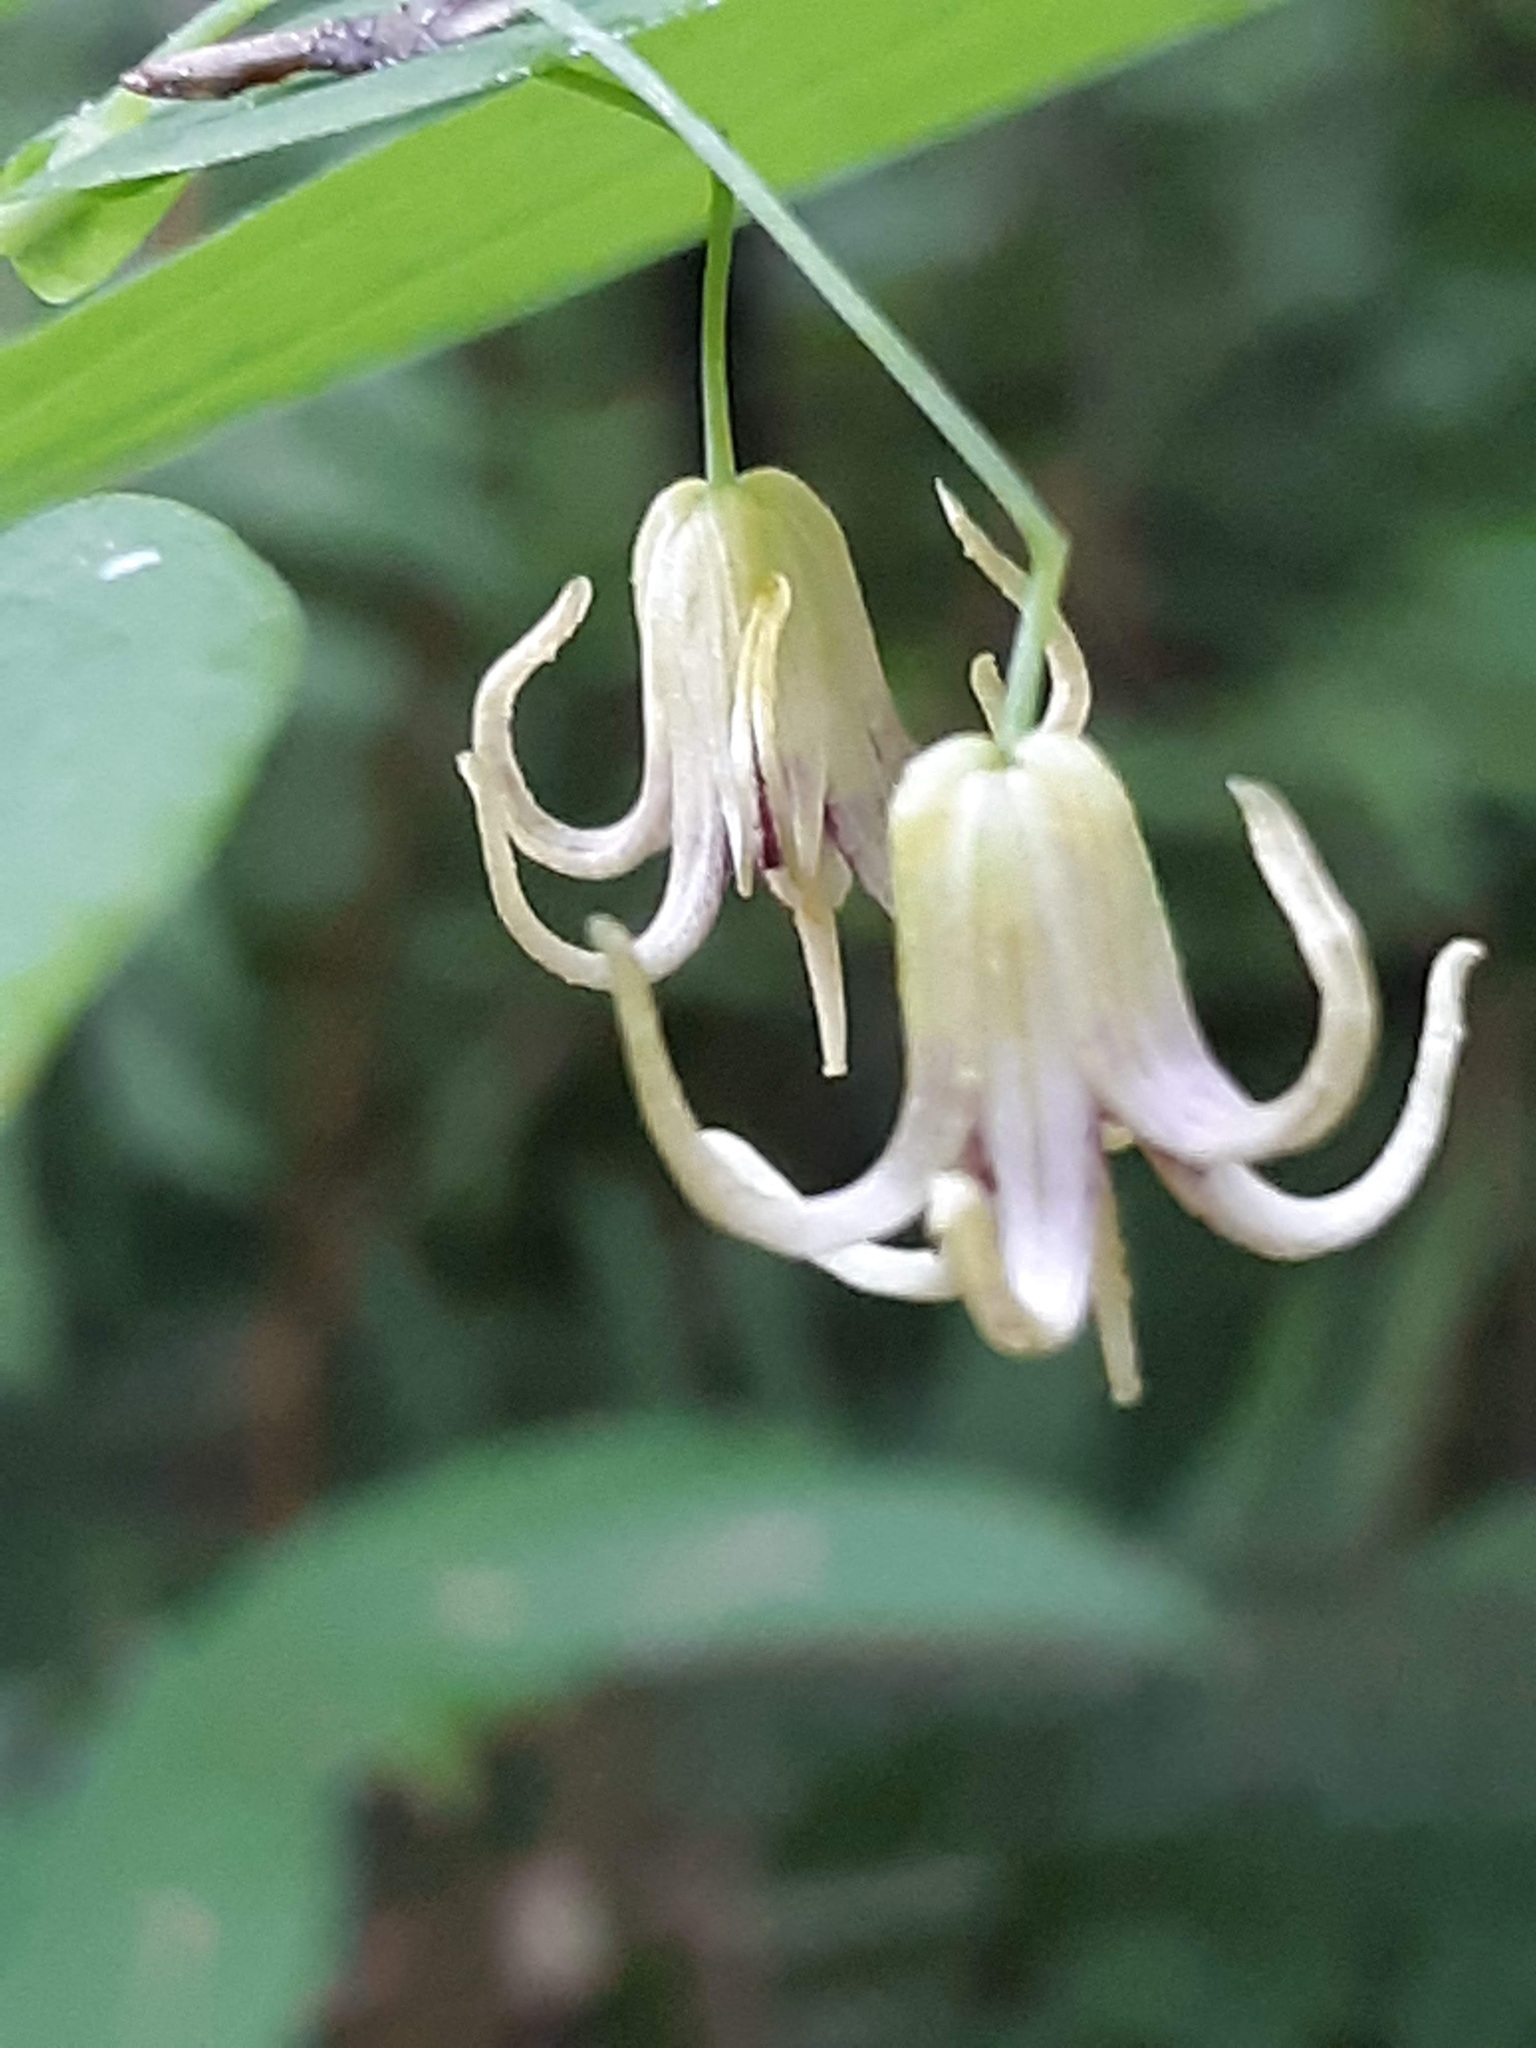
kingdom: Plantae
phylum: Tracheophyta
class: Liliopsida
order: Liliales
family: Liliaceae
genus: Streptopus
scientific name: Streptopus amplexifolius
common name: Clasp twisted stalk
